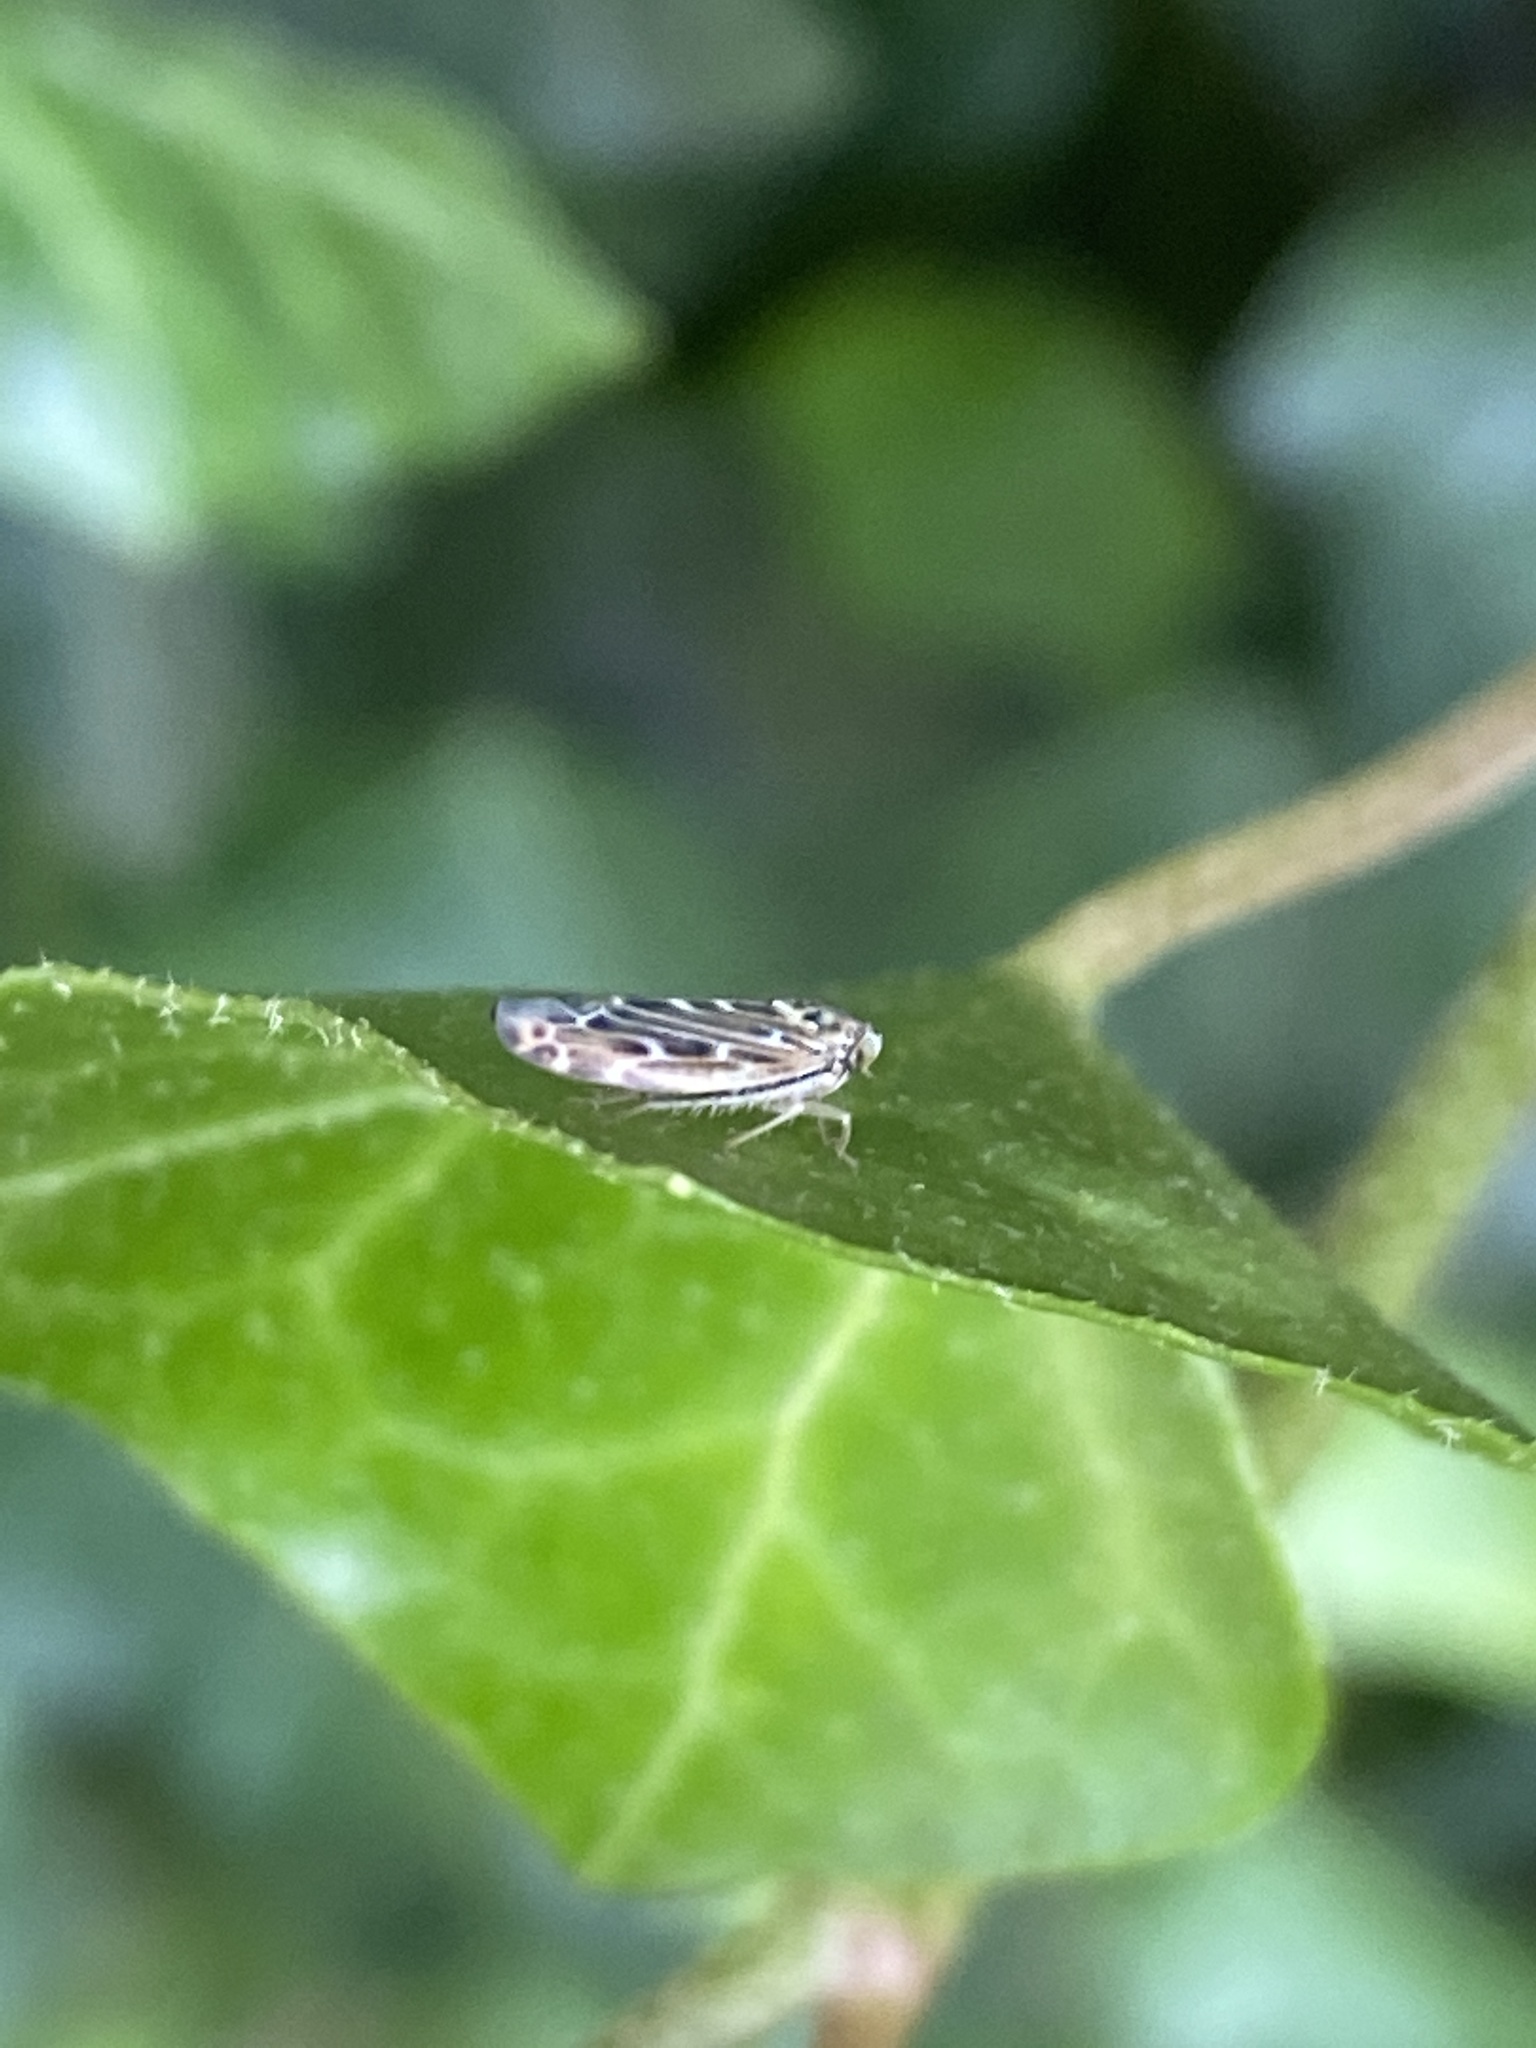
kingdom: Animalia
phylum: Arthropoda
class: Insecta
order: Hemiptera
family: Cicadellidae
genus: Lamprotettix
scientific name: Lamprotettix nitidulus
